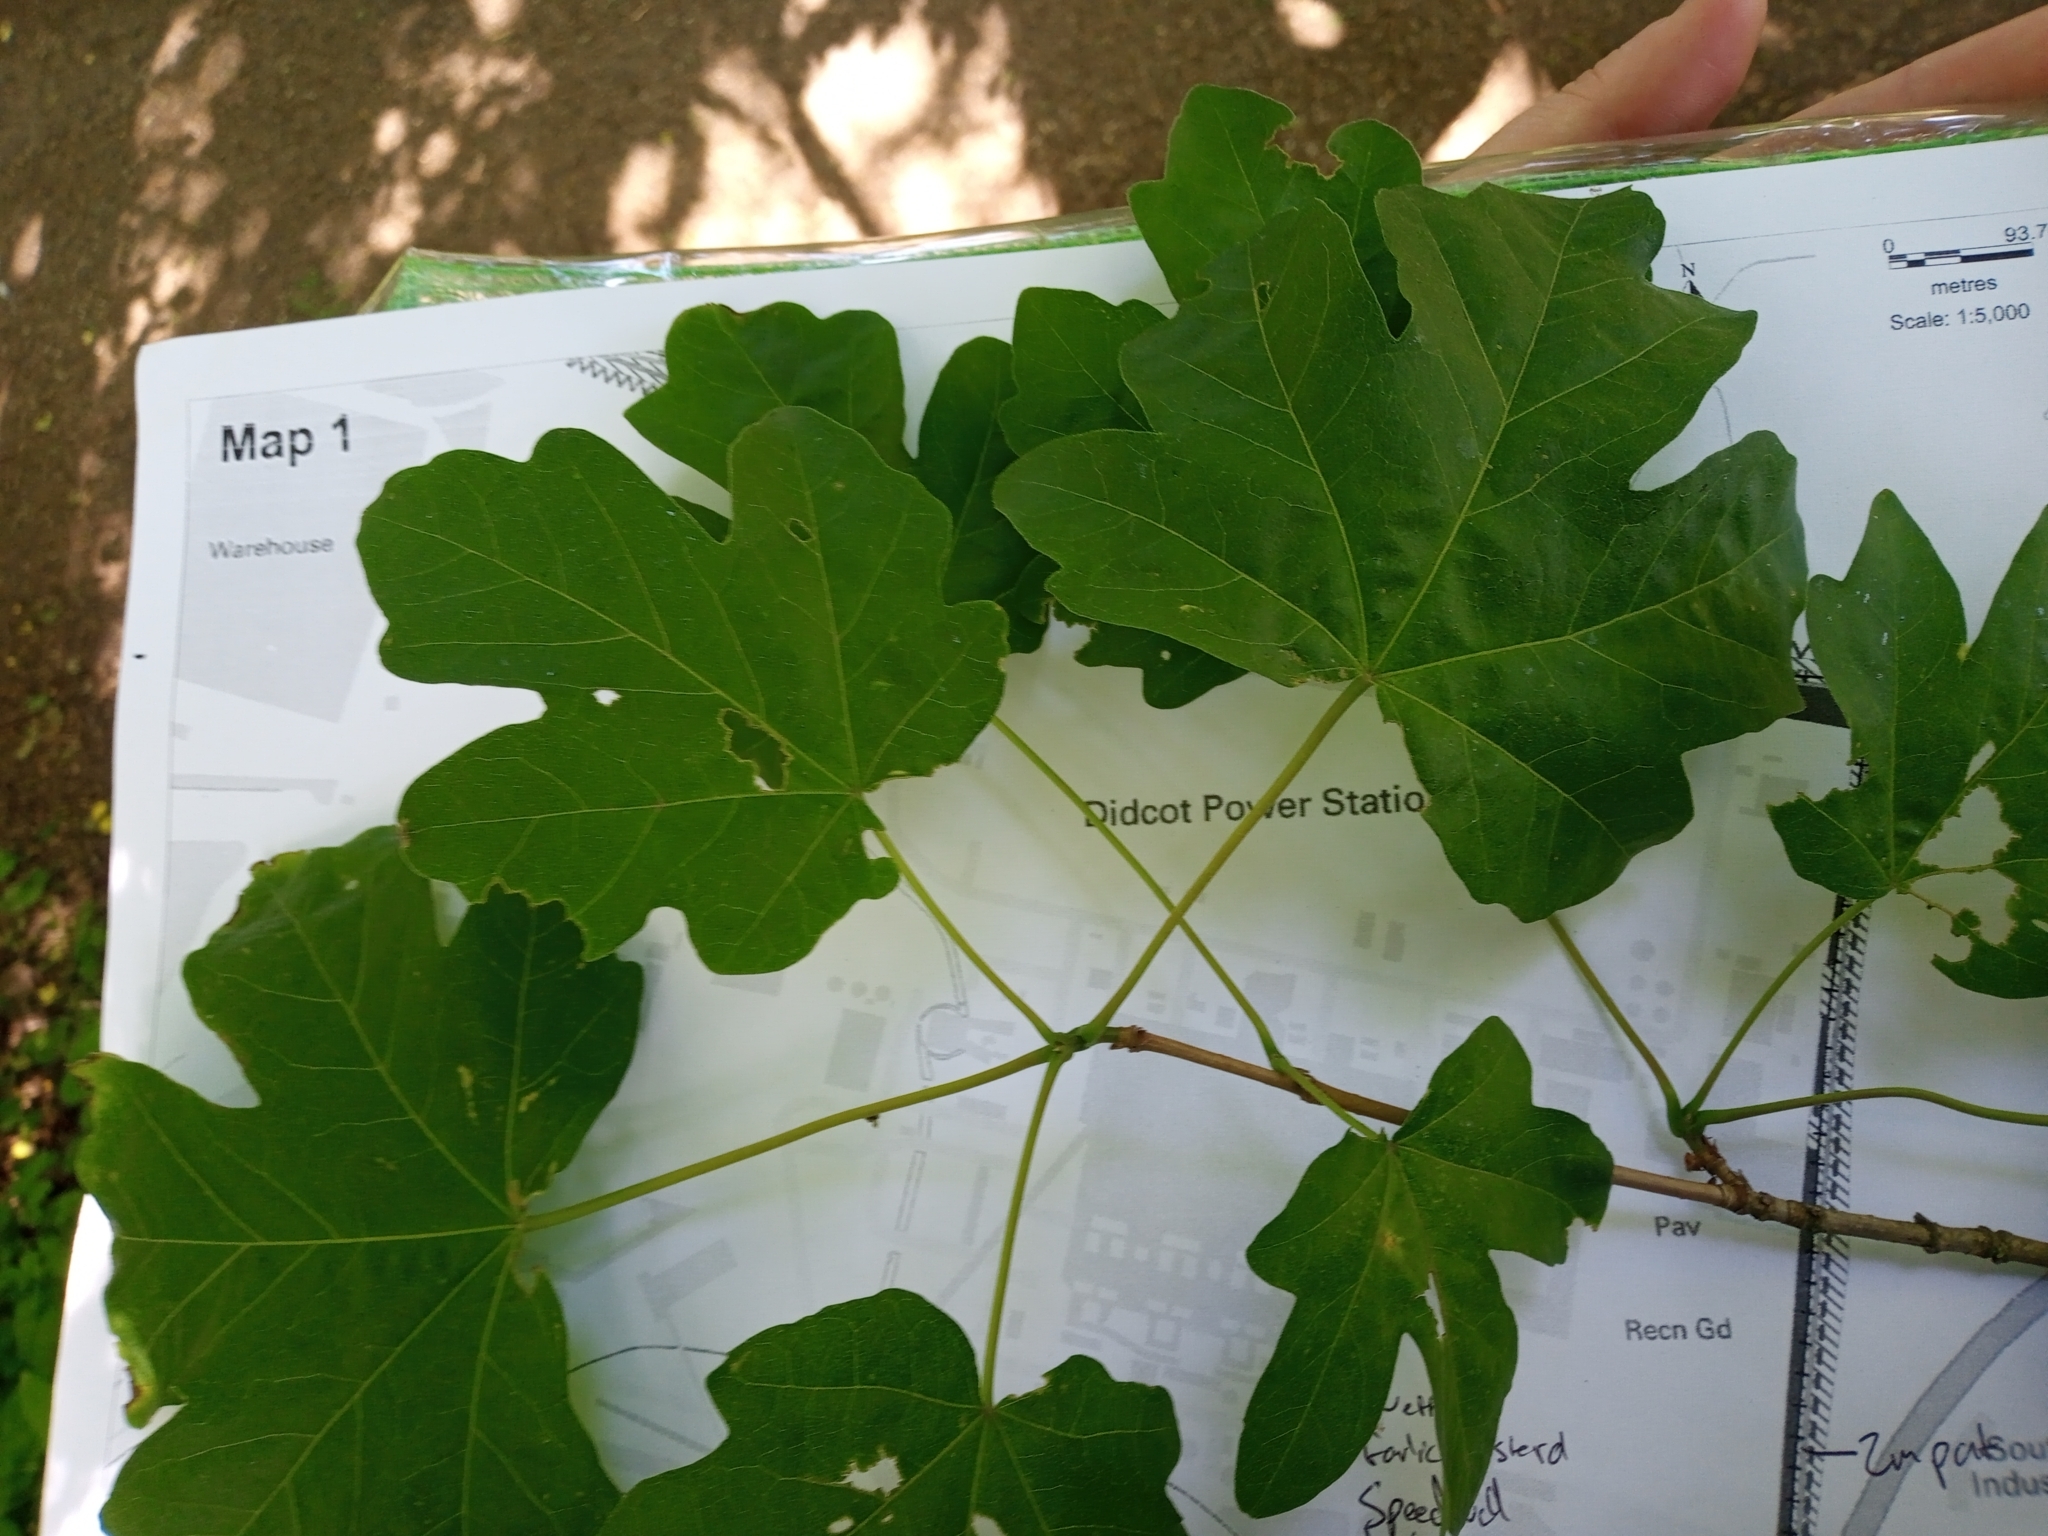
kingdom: Plantae
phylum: Tracheophyta
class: Magnoliopsida
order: Sapindales
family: Sapindaceae
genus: Acer
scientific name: Acer campestre
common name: Field maple
